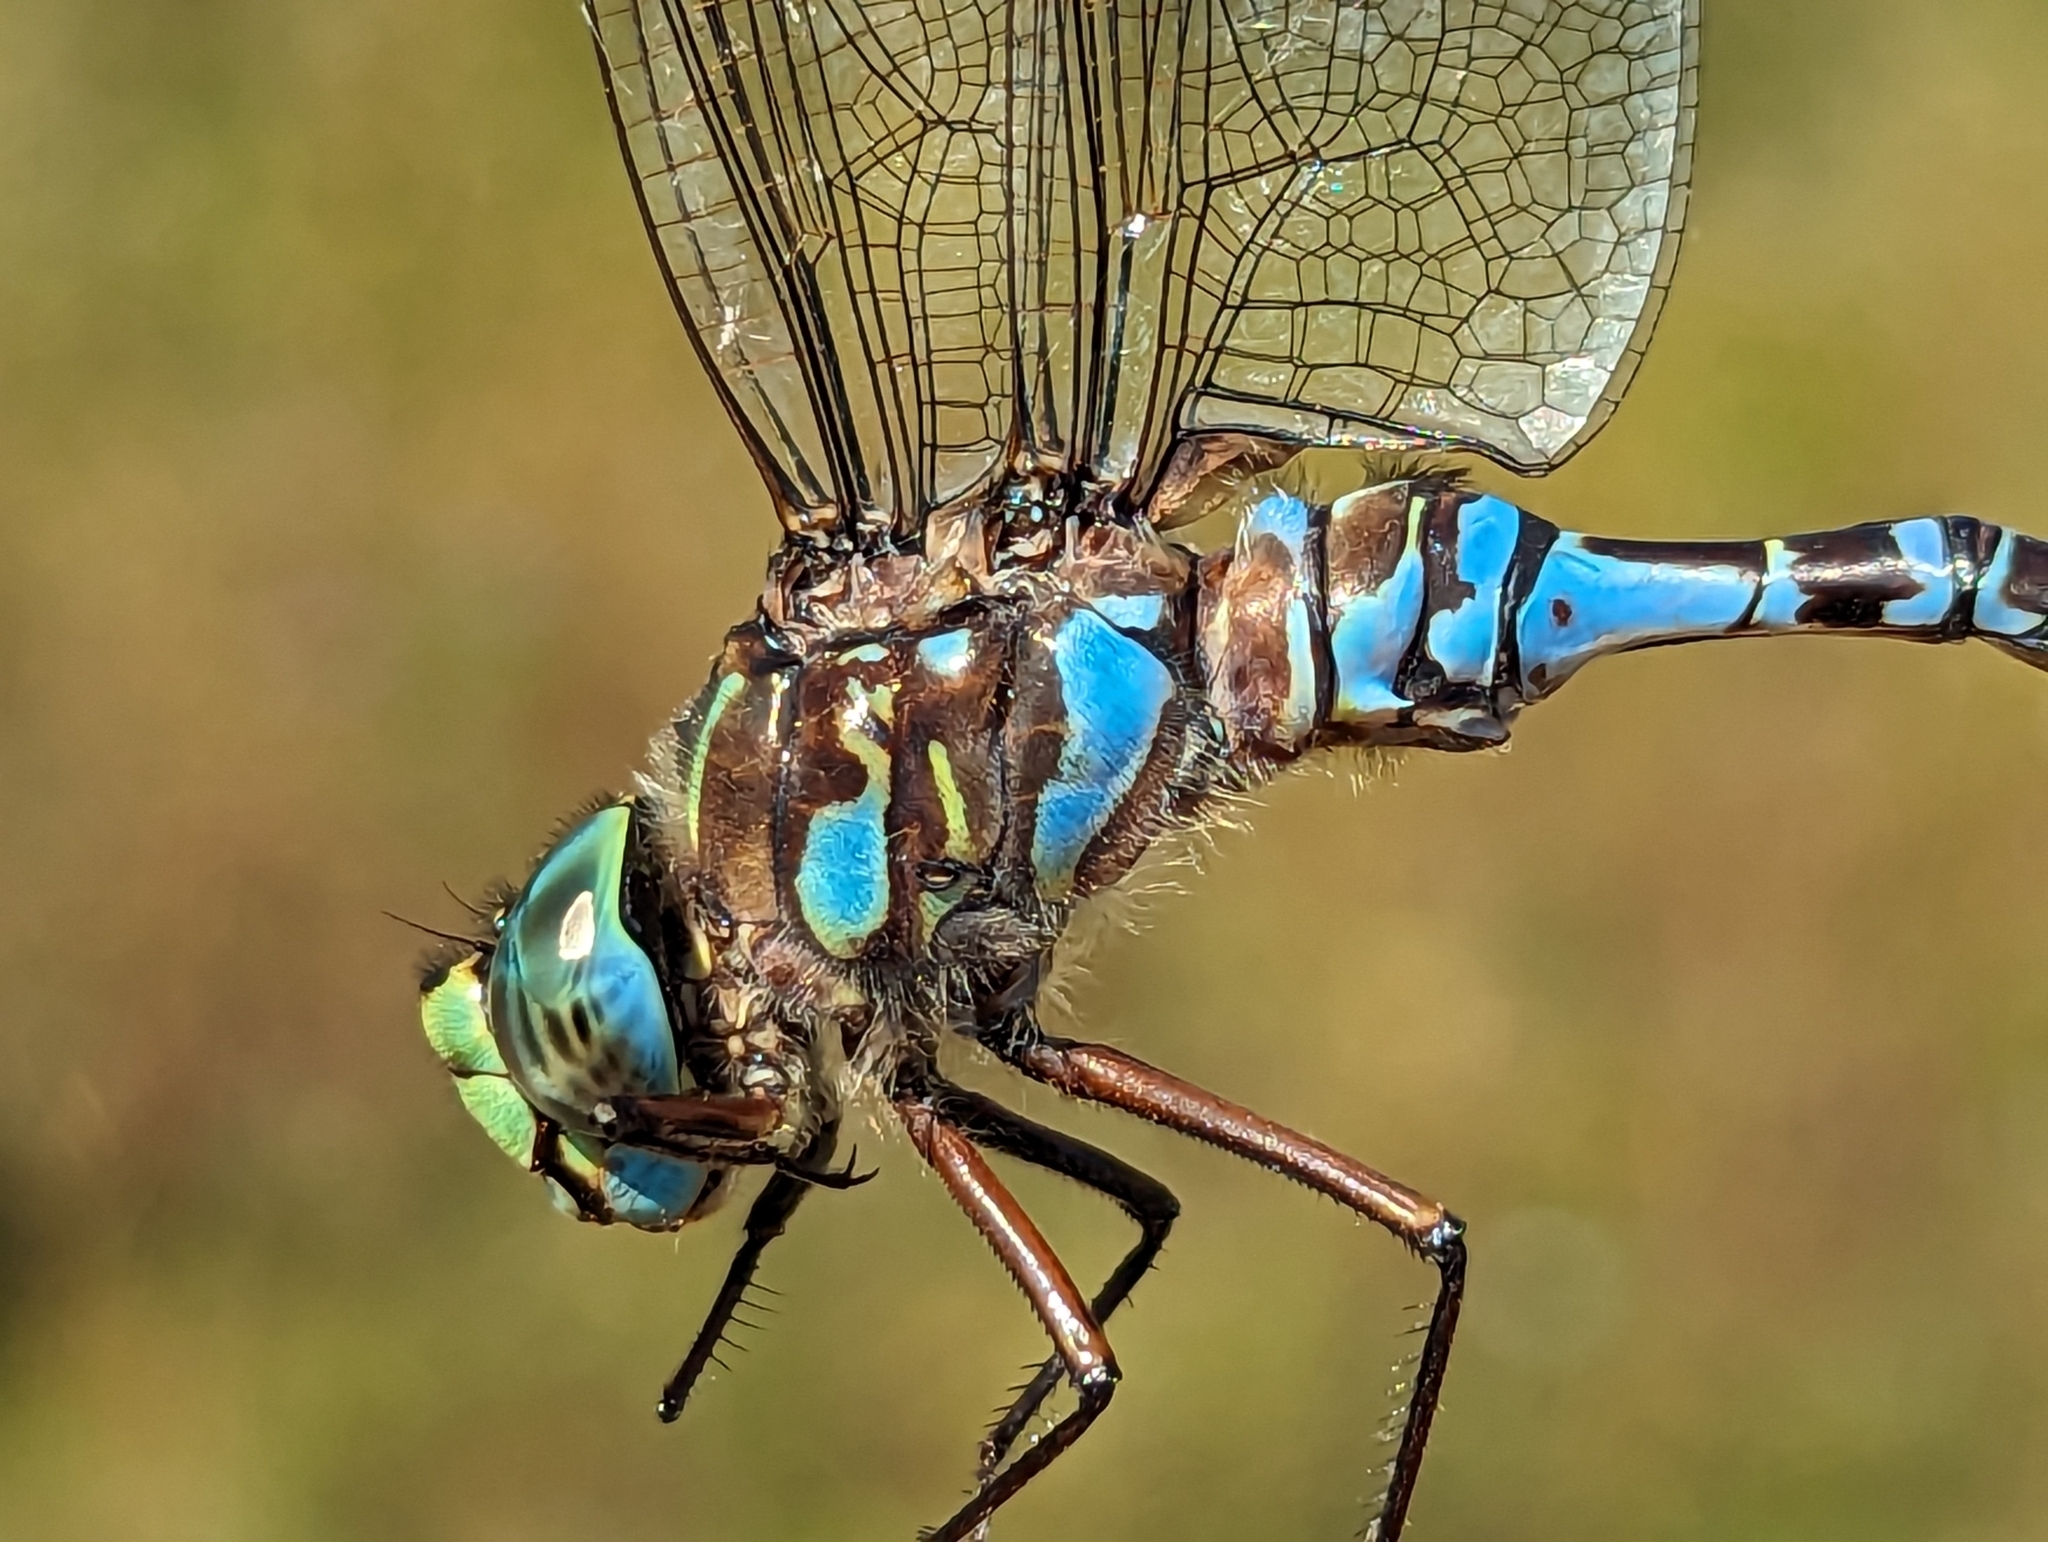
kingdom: Animalia
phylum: Arthropoda
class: Insecta
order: Odonata
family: Aeshnidae
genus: Aeshna
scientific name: Aeshna eremita
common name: Lake darner
